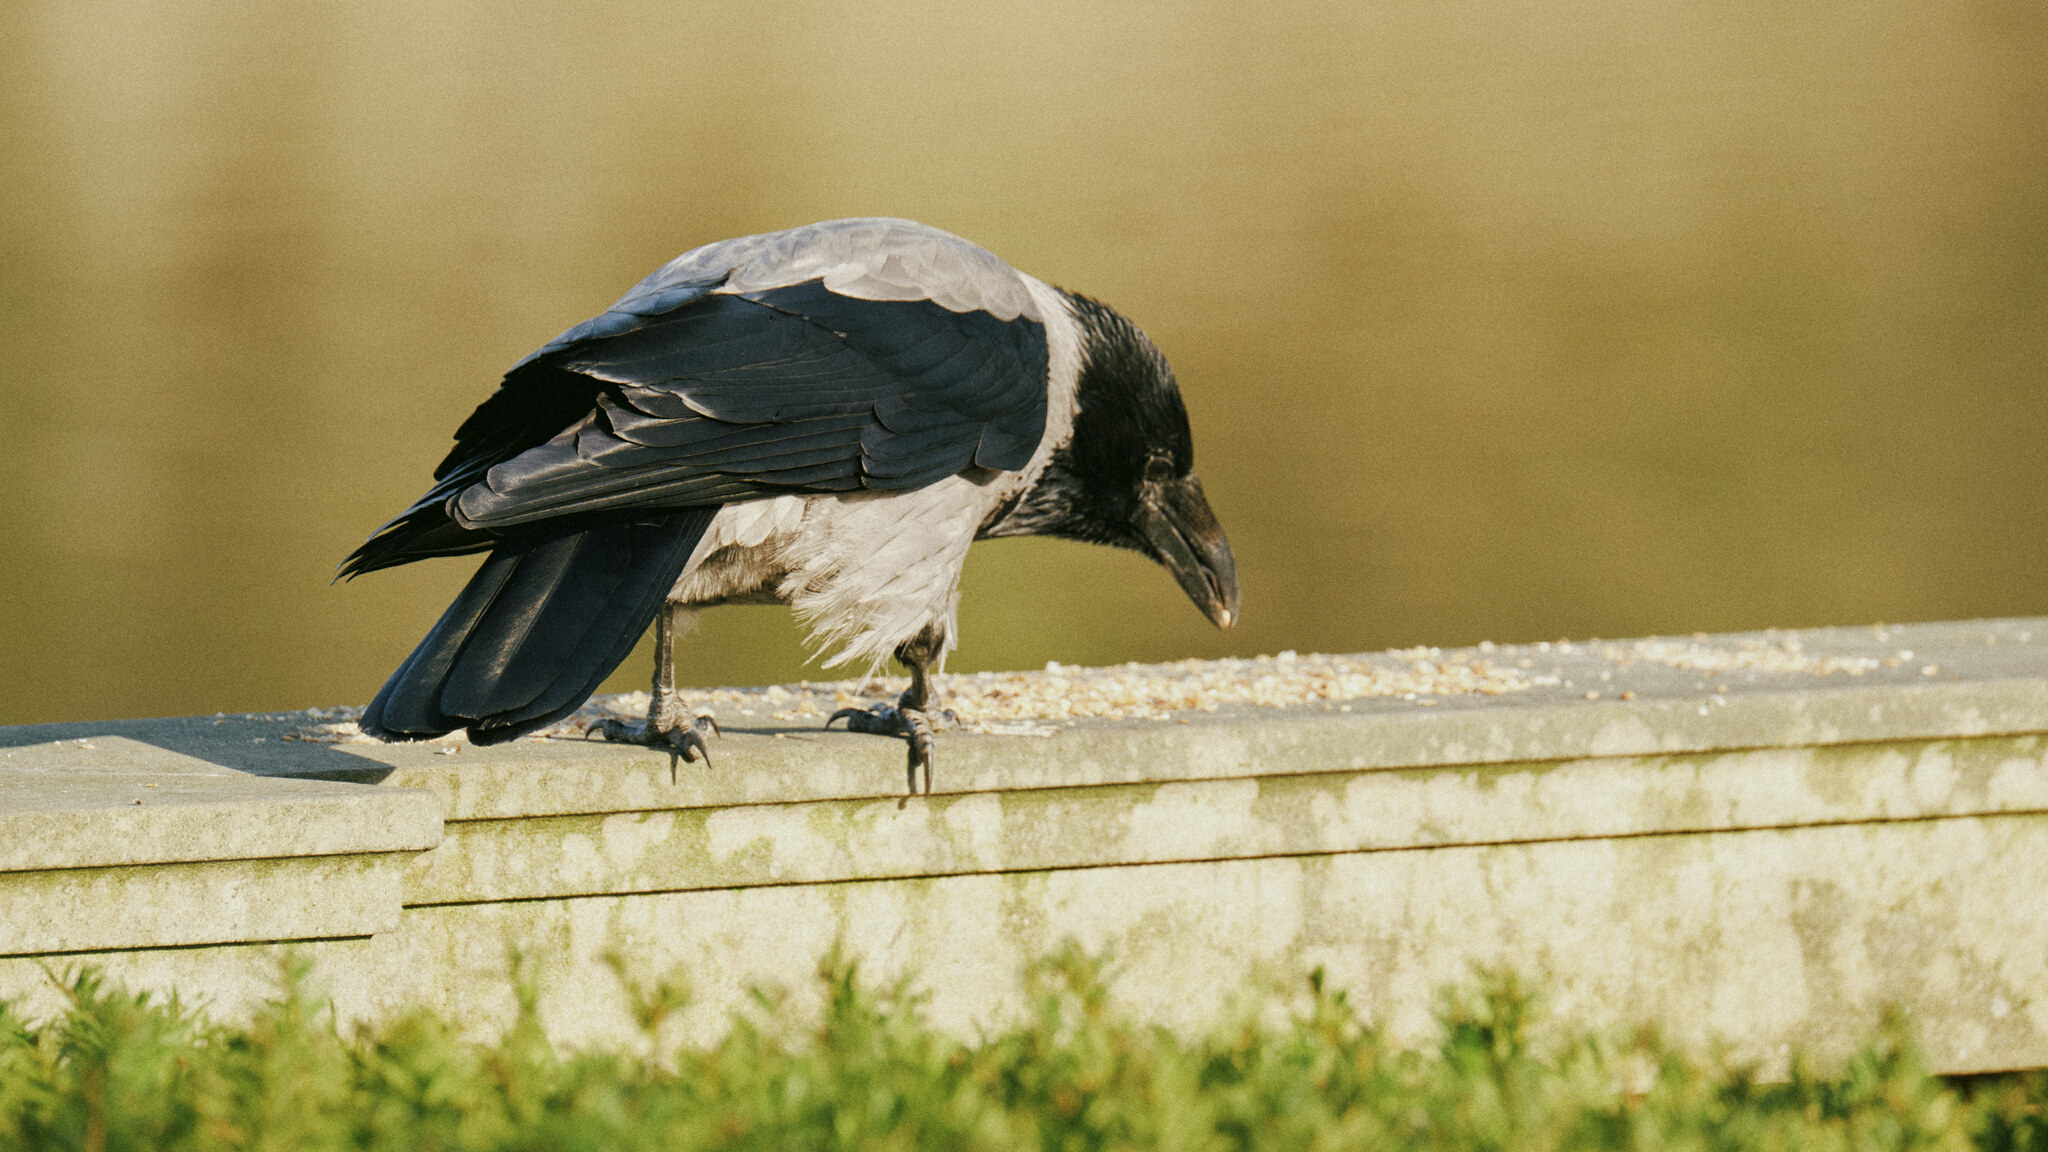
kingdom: Animalia
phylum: Chordata
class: Aves
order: Passeriformes
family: Corvidae
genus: Corvus
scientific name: Corvus cornix
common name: Hooded crow
